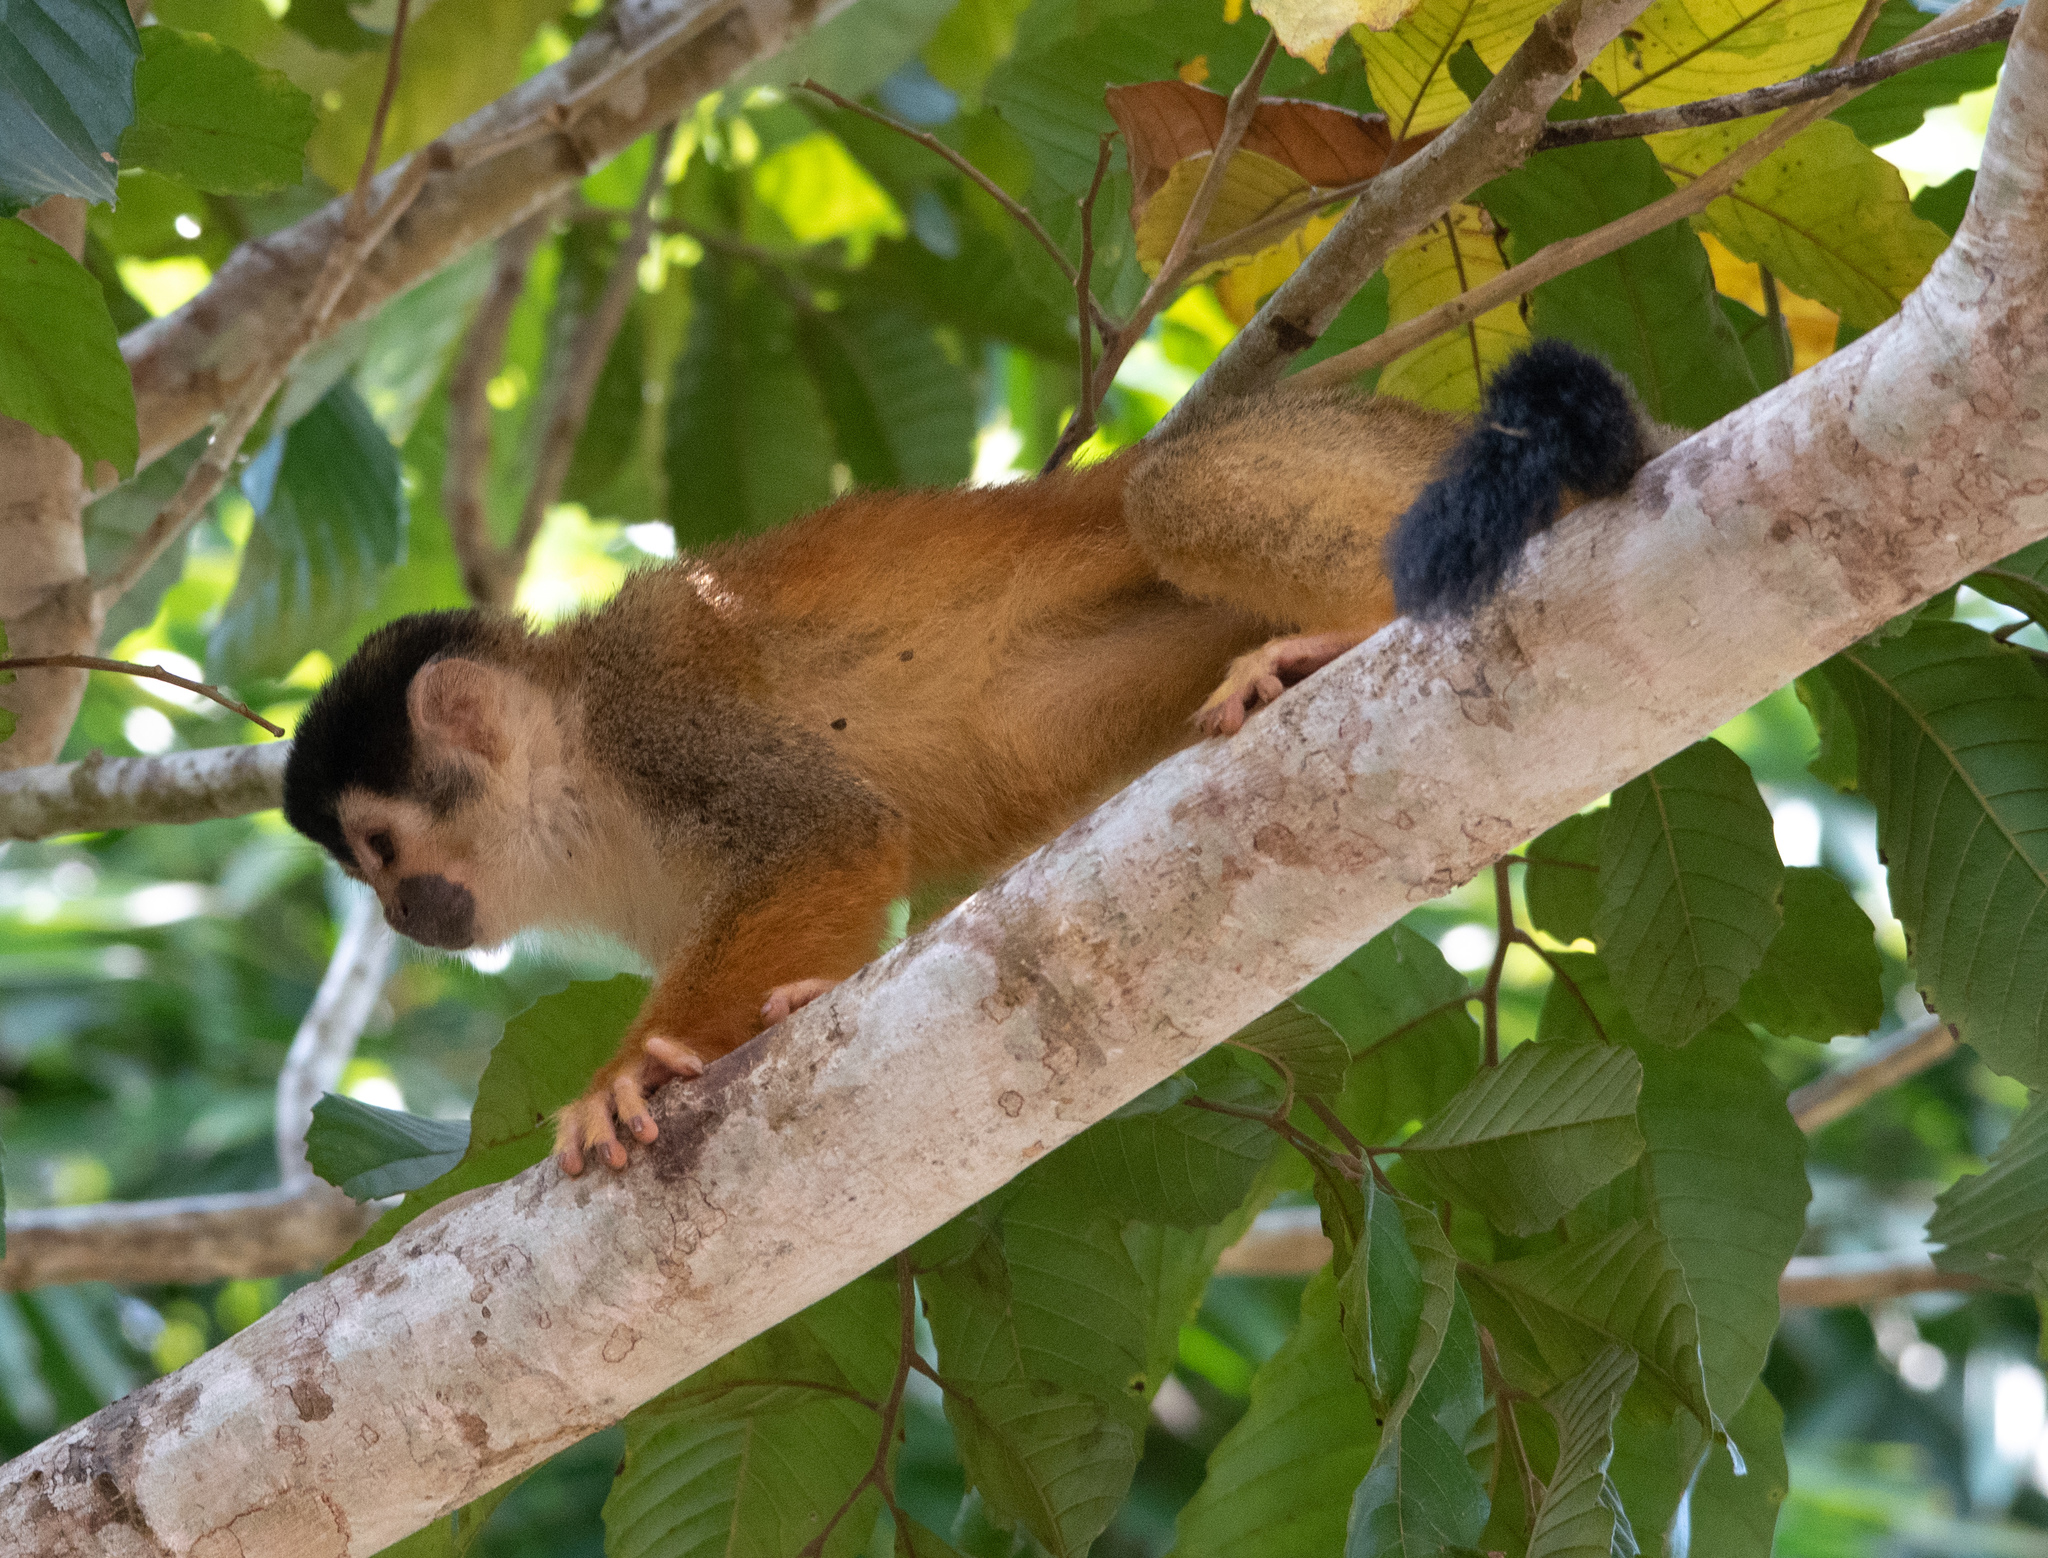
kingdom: Animalia
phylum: Chordata
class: Mammalia
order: Primates
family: Cebidae
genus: Saimiri
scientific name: Saimiri oerstedii
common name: Central american squirrel monkey
